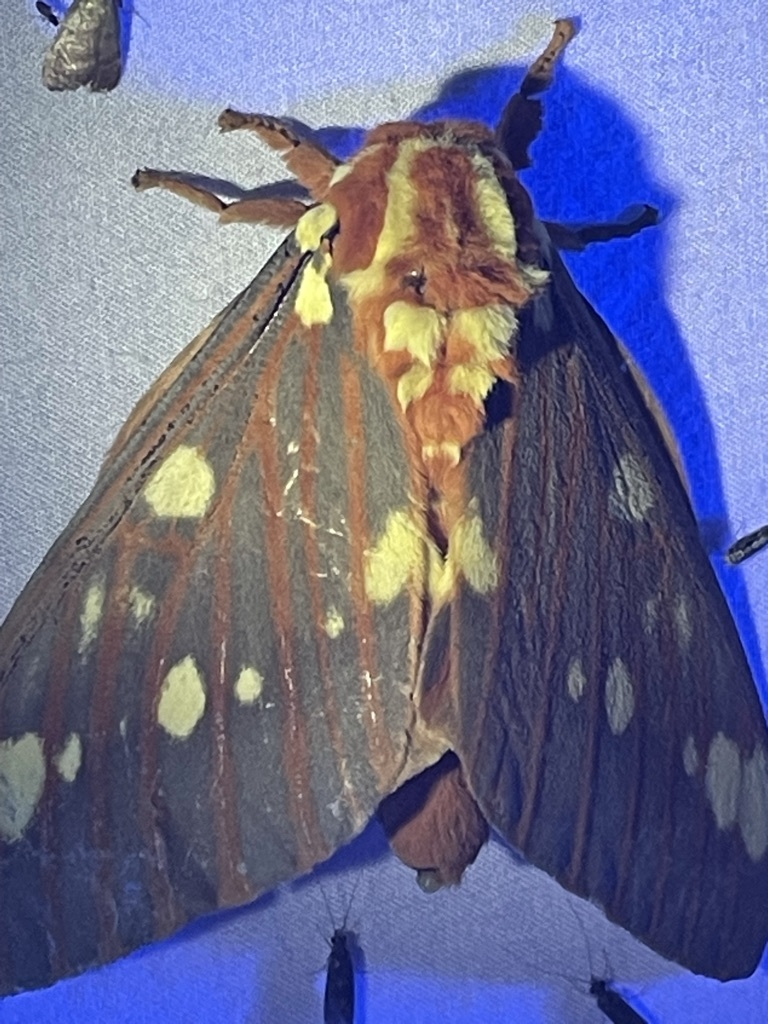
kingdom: Animalia
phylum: Arthropoda
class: Insecta
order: Lepidoptera
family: Saturniidae
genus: Citheronia
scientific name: Citheronia regalis
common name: Hickory horned devil
